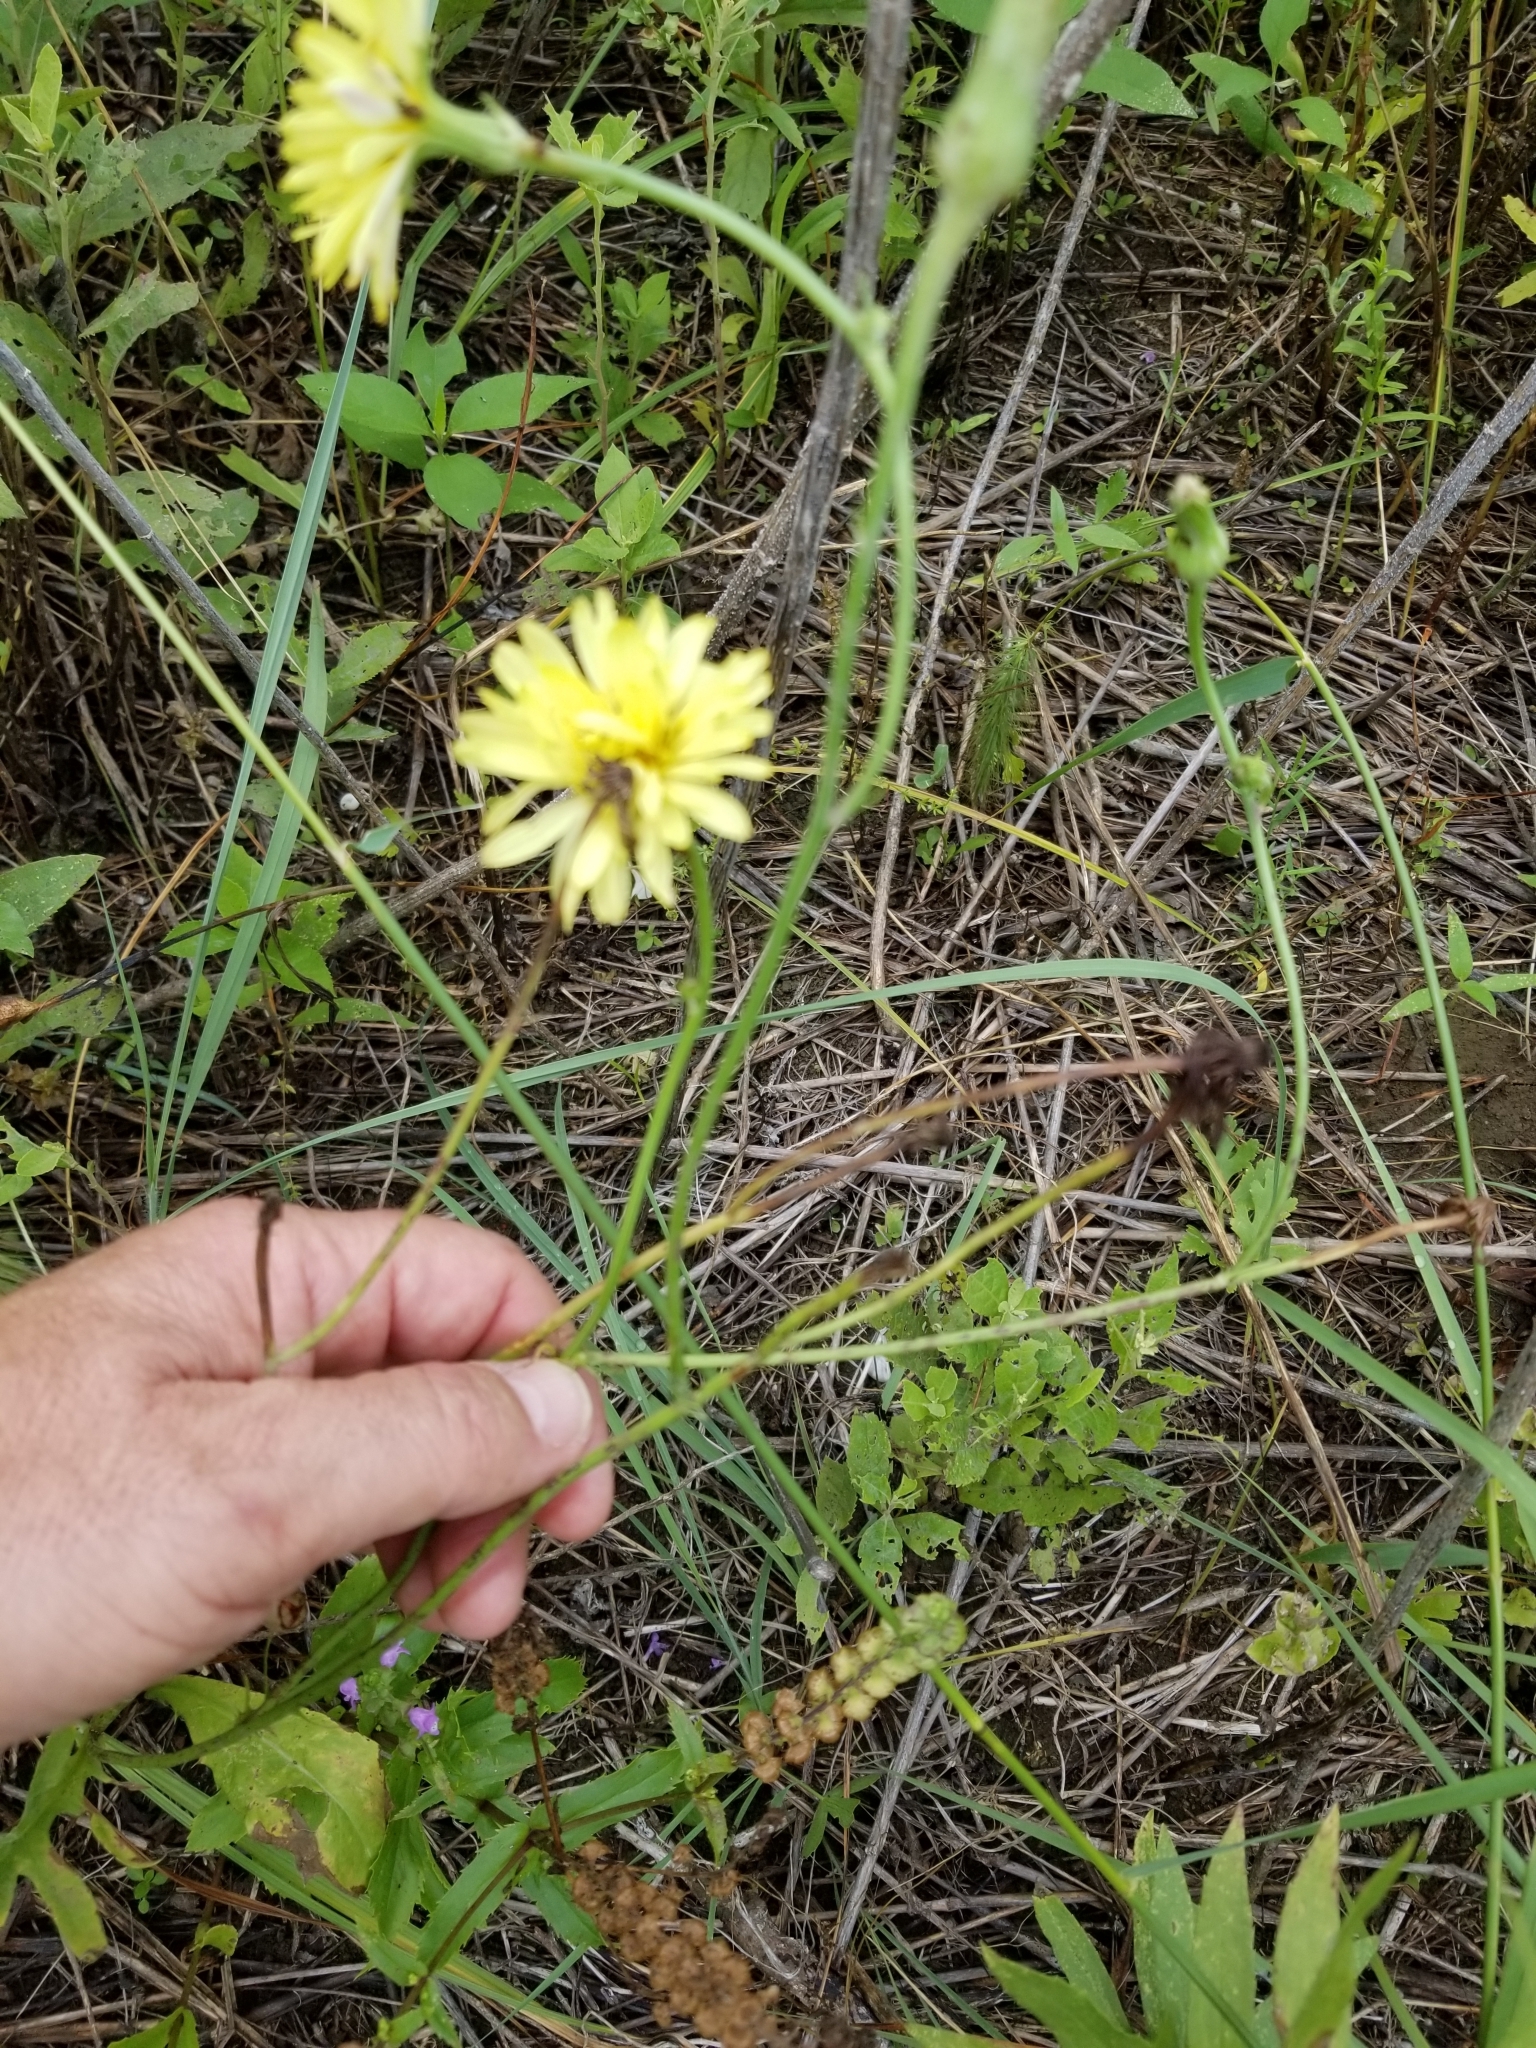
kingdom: Plantae
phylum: Tracheophyta
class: Magnoliopsida
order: Asterales
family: Asteraceae
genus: Pyrrhopappus
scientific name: Pyrrhopappus pauciflorus
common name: Texas false dandelion
